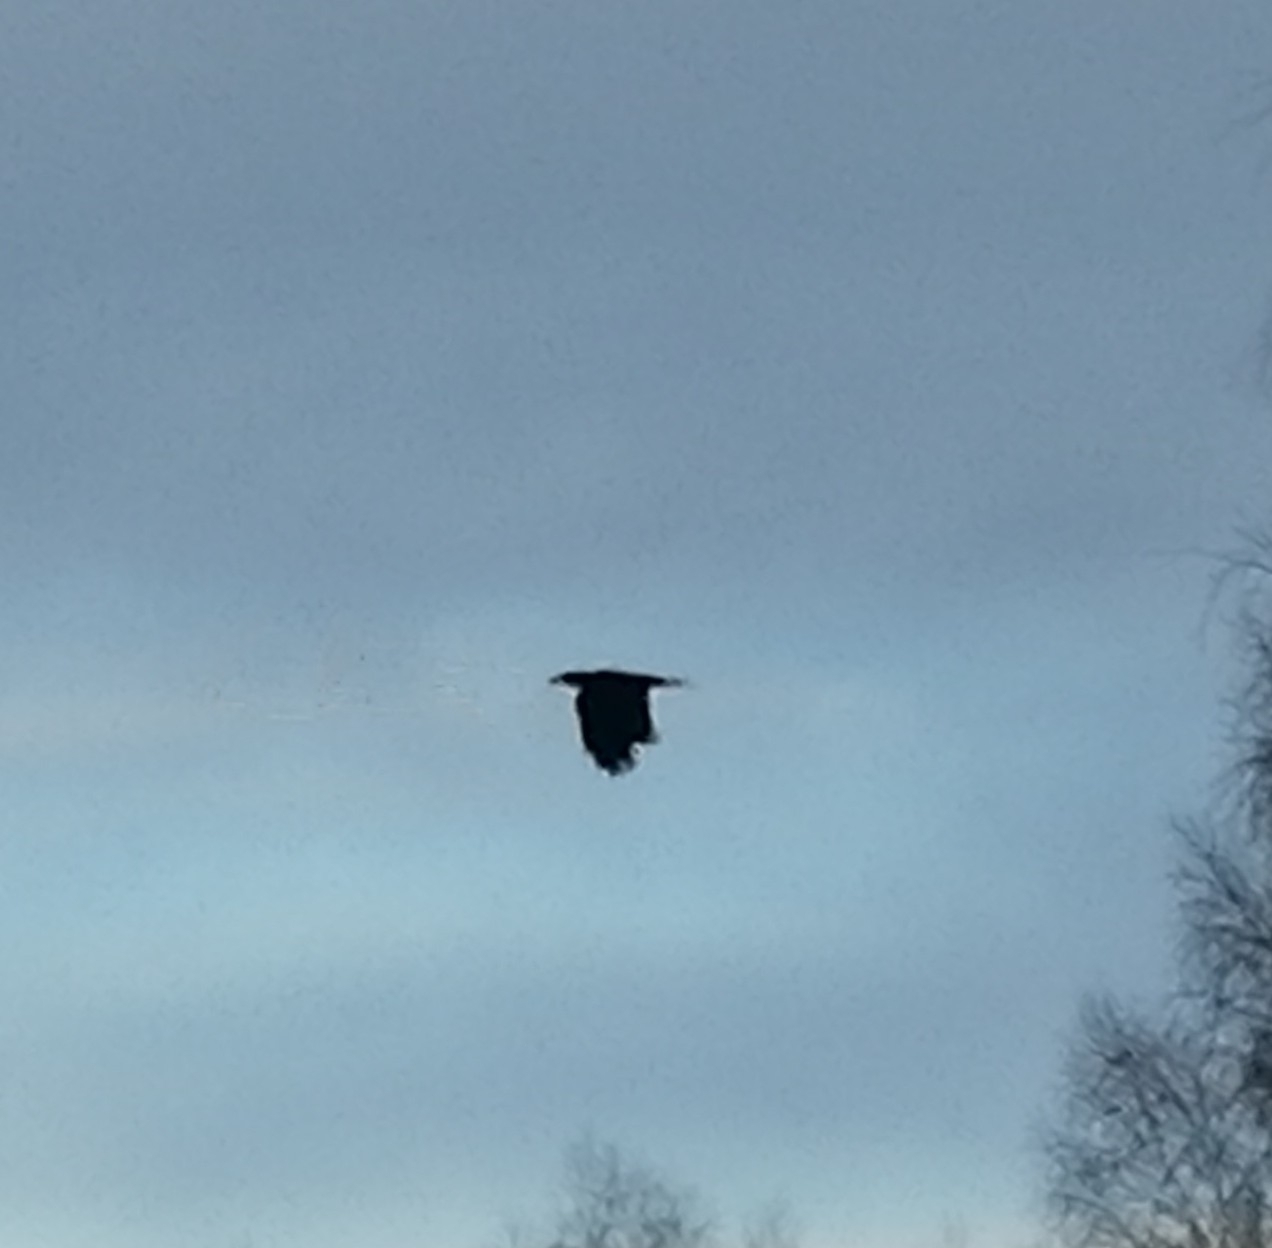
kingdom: Animalia
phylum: Chordata
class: Aves
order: Passeriformes
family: Corvidae
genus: Corvus
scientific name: Corvus corax
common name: Common raven
